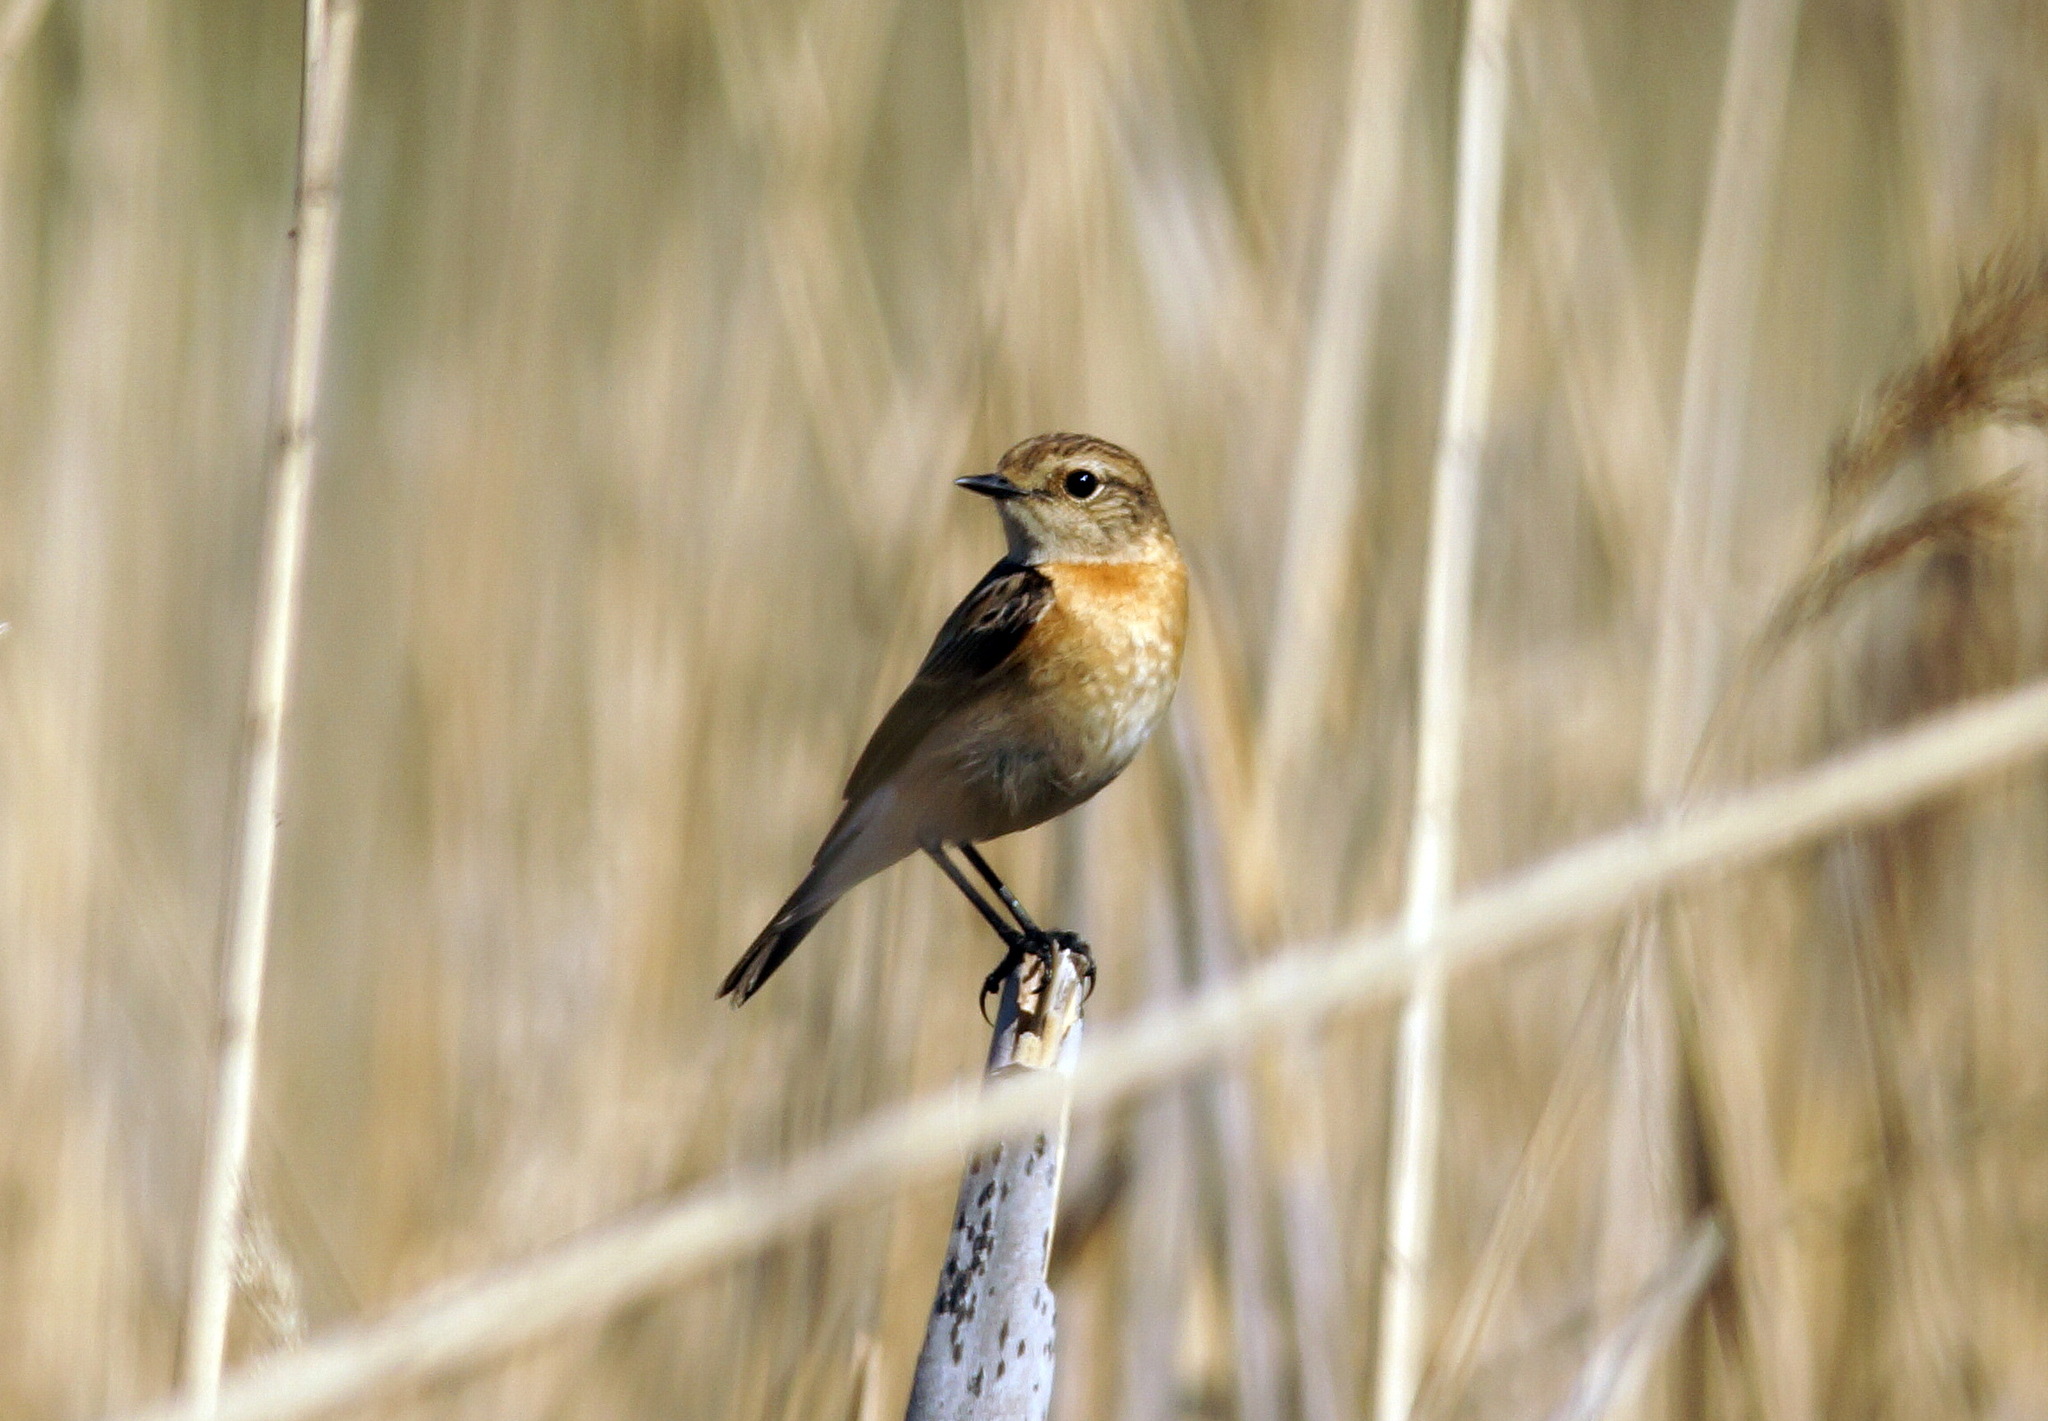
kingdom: Animalia
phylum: Chordata
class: Aves
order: Passeriformes
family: Muscicapidae
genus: Saxicola
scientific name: Saxicola rubicola
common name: European stonechat
